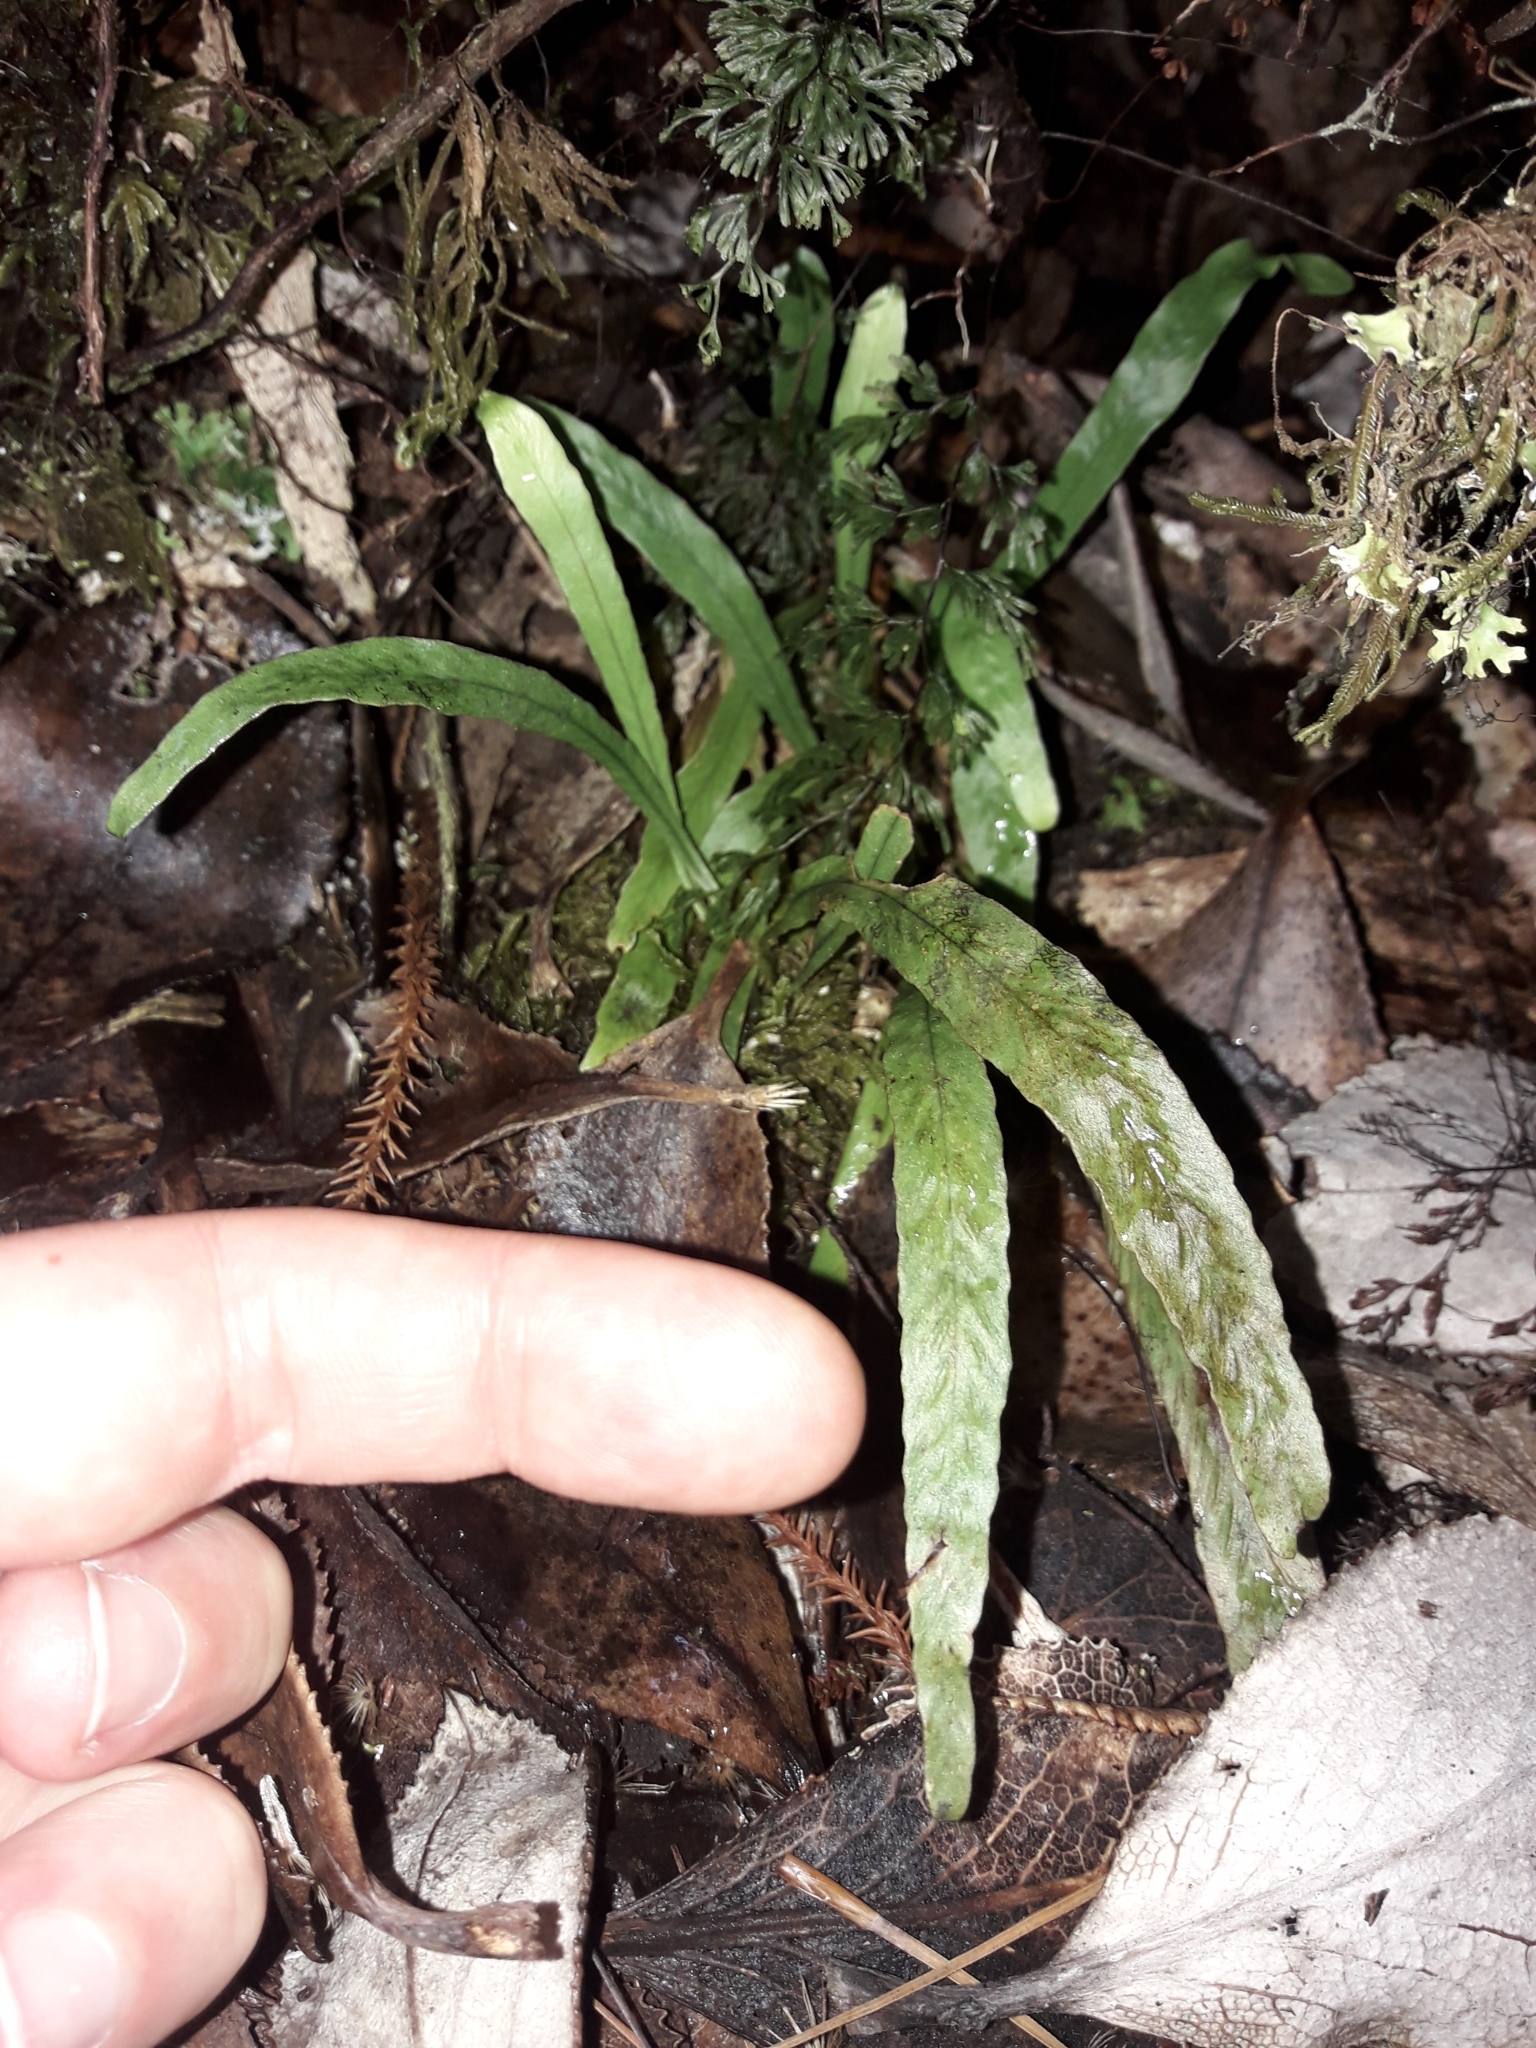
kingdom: Plantae
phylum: Tracheophyta
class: Polypodiopsida
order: Polypodiales
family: Polypodiaceae
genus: Notogrammitis
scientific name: Notogrammitis billardierei
